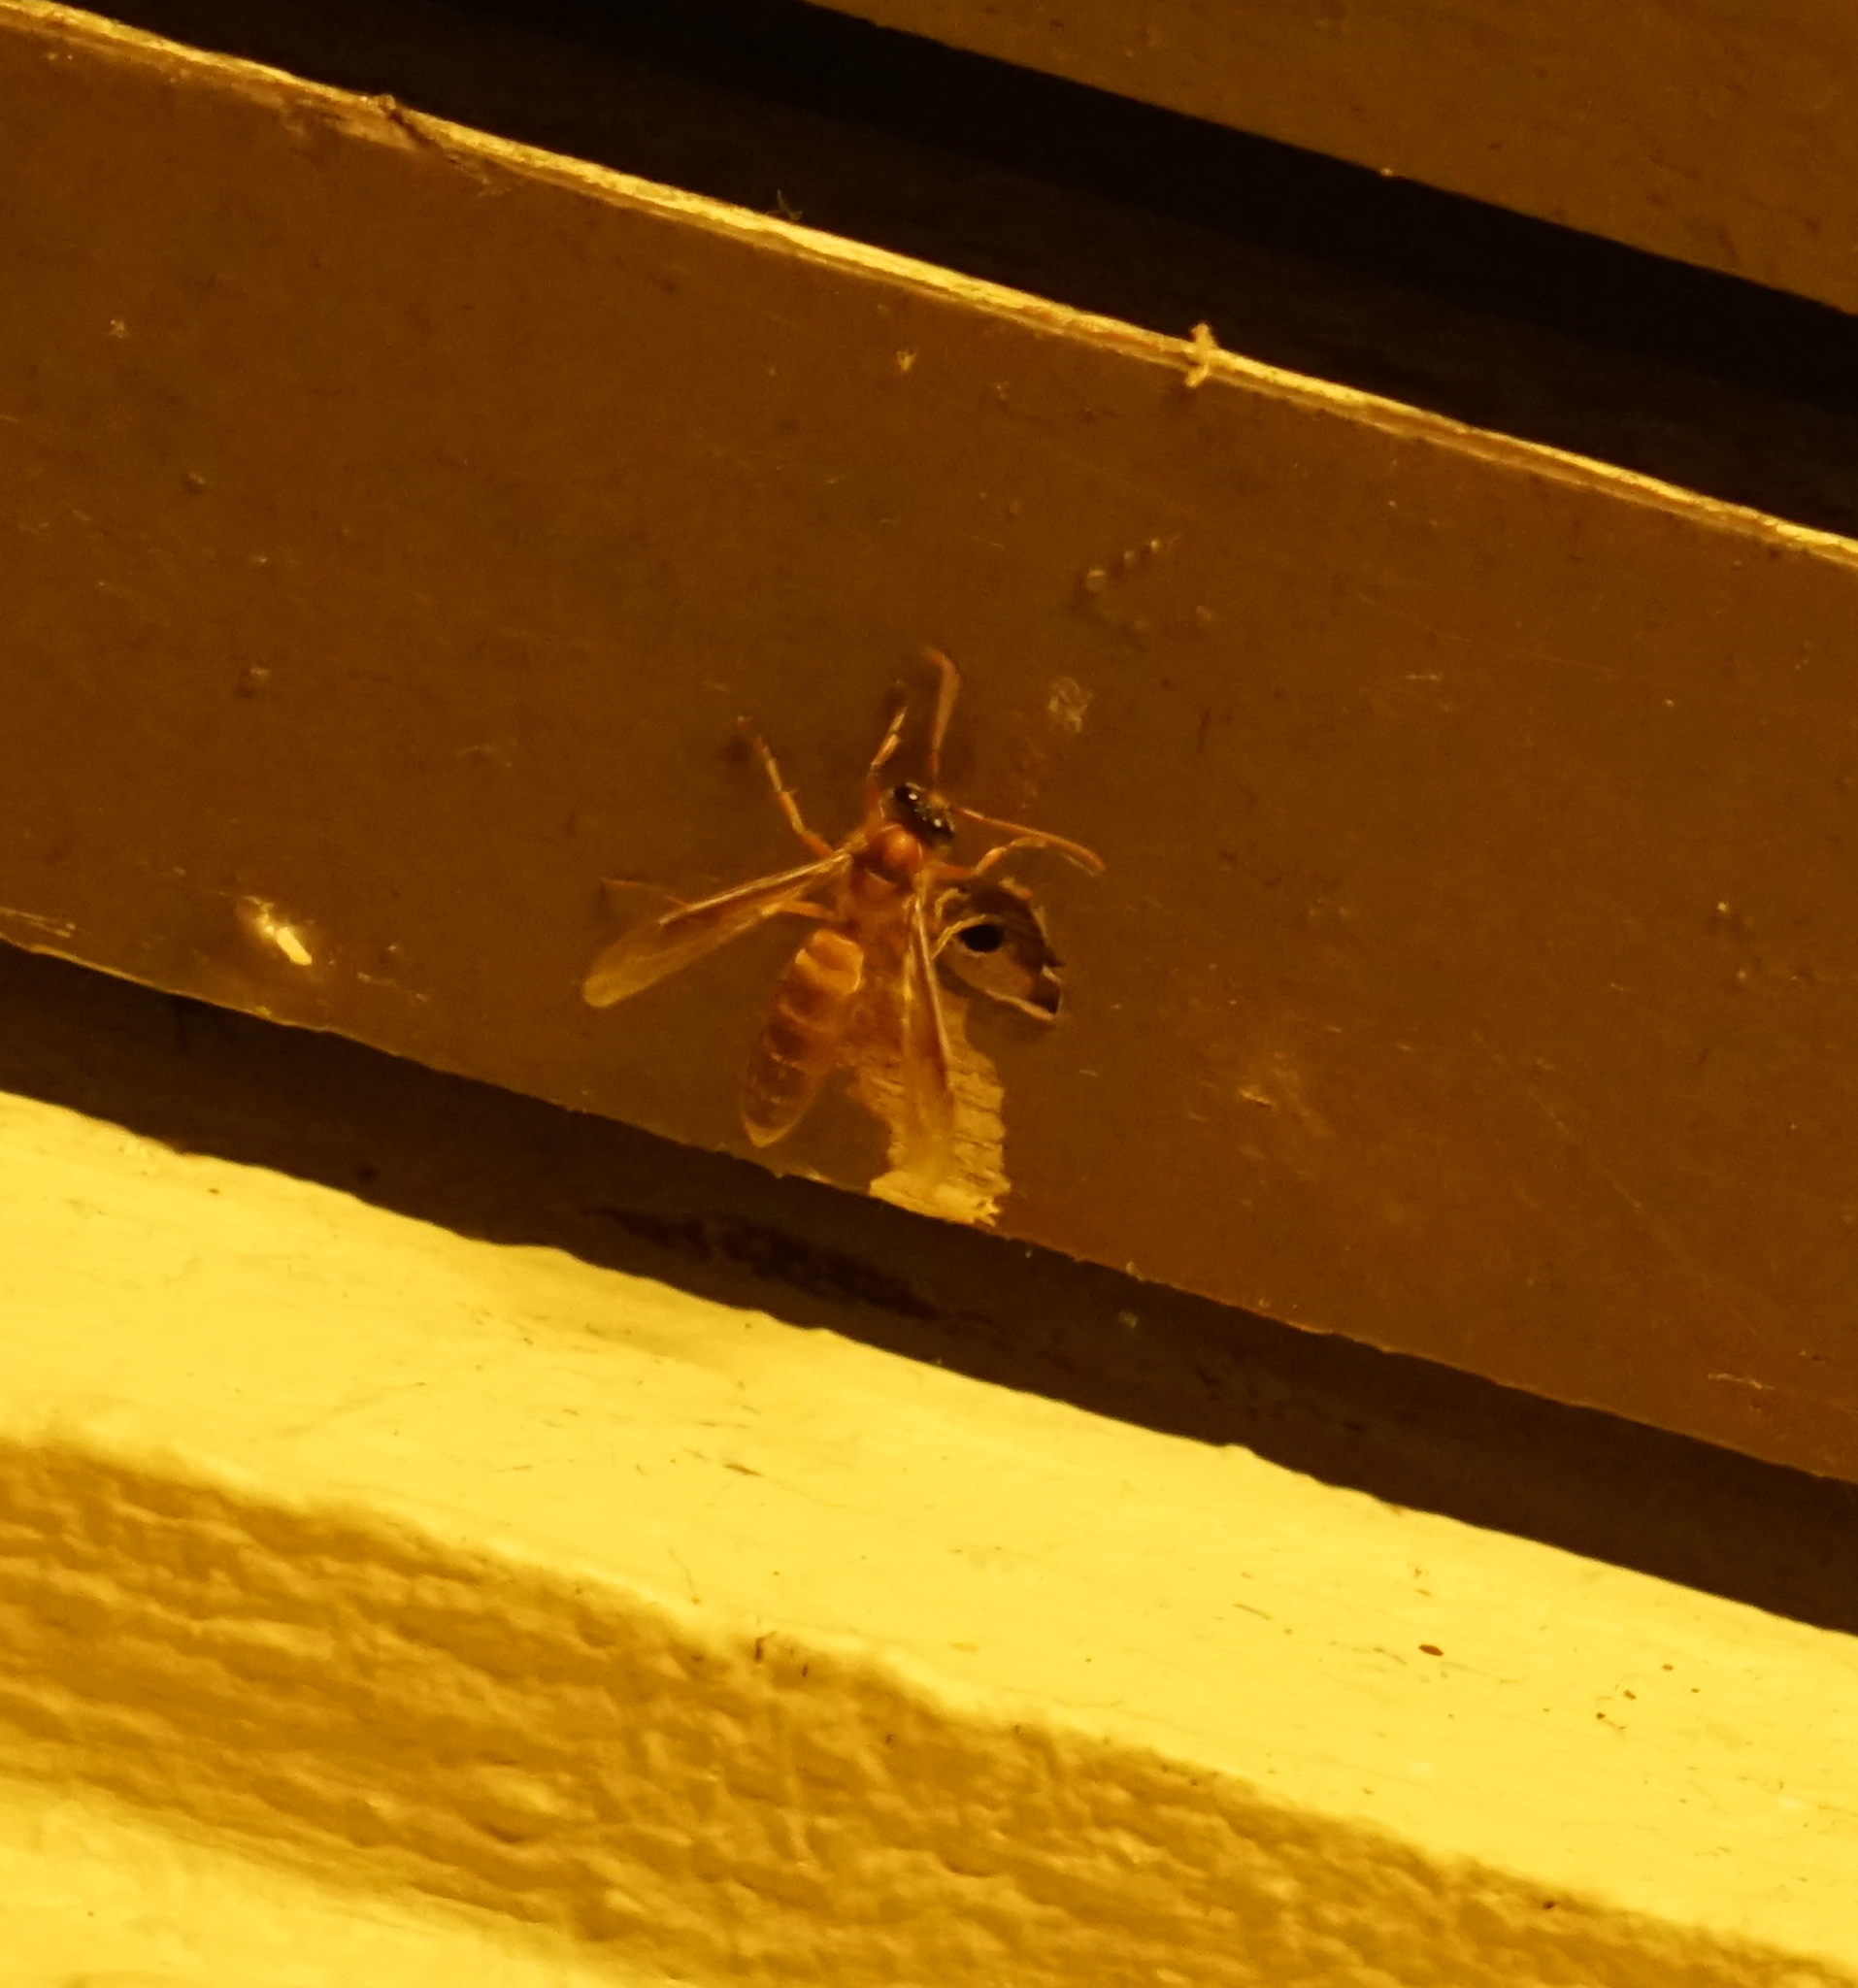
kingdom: Animalia
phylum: Arthropoda
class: Insecta
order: Hymenoptera
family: Vespidae
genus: Provespa
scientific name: Provespa
